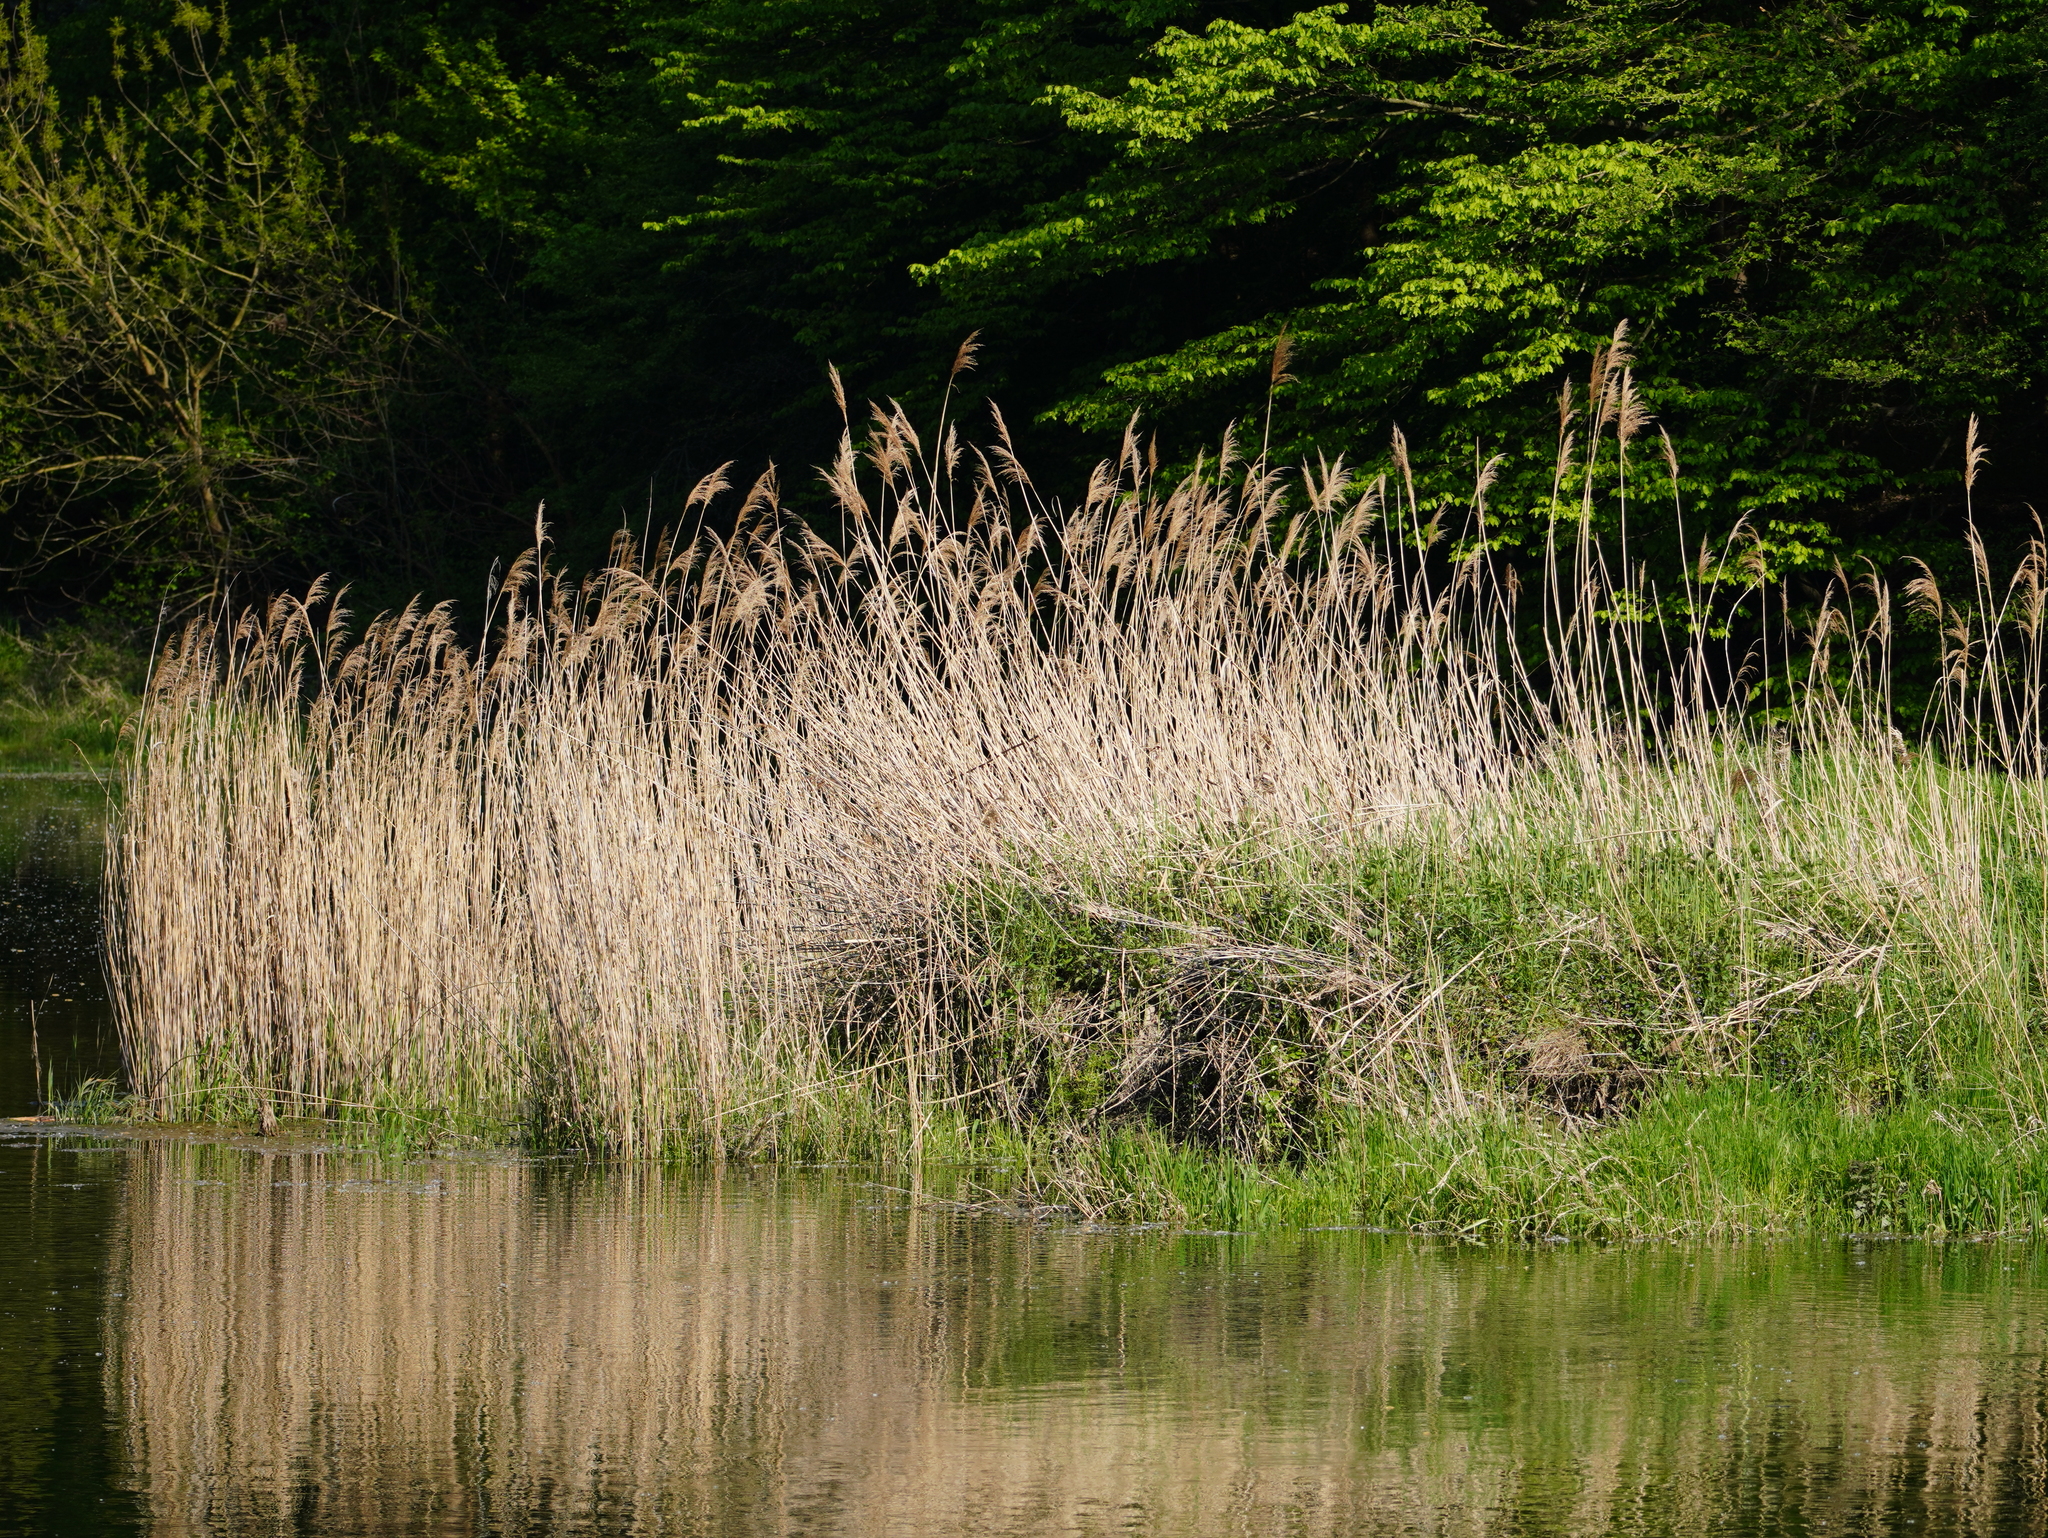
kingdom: Plantae
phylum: Tracheophyta
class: Liliopsida
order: Poales
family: Poaceae
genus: Phragmites
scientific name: Phragmites australis
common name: Common reed
